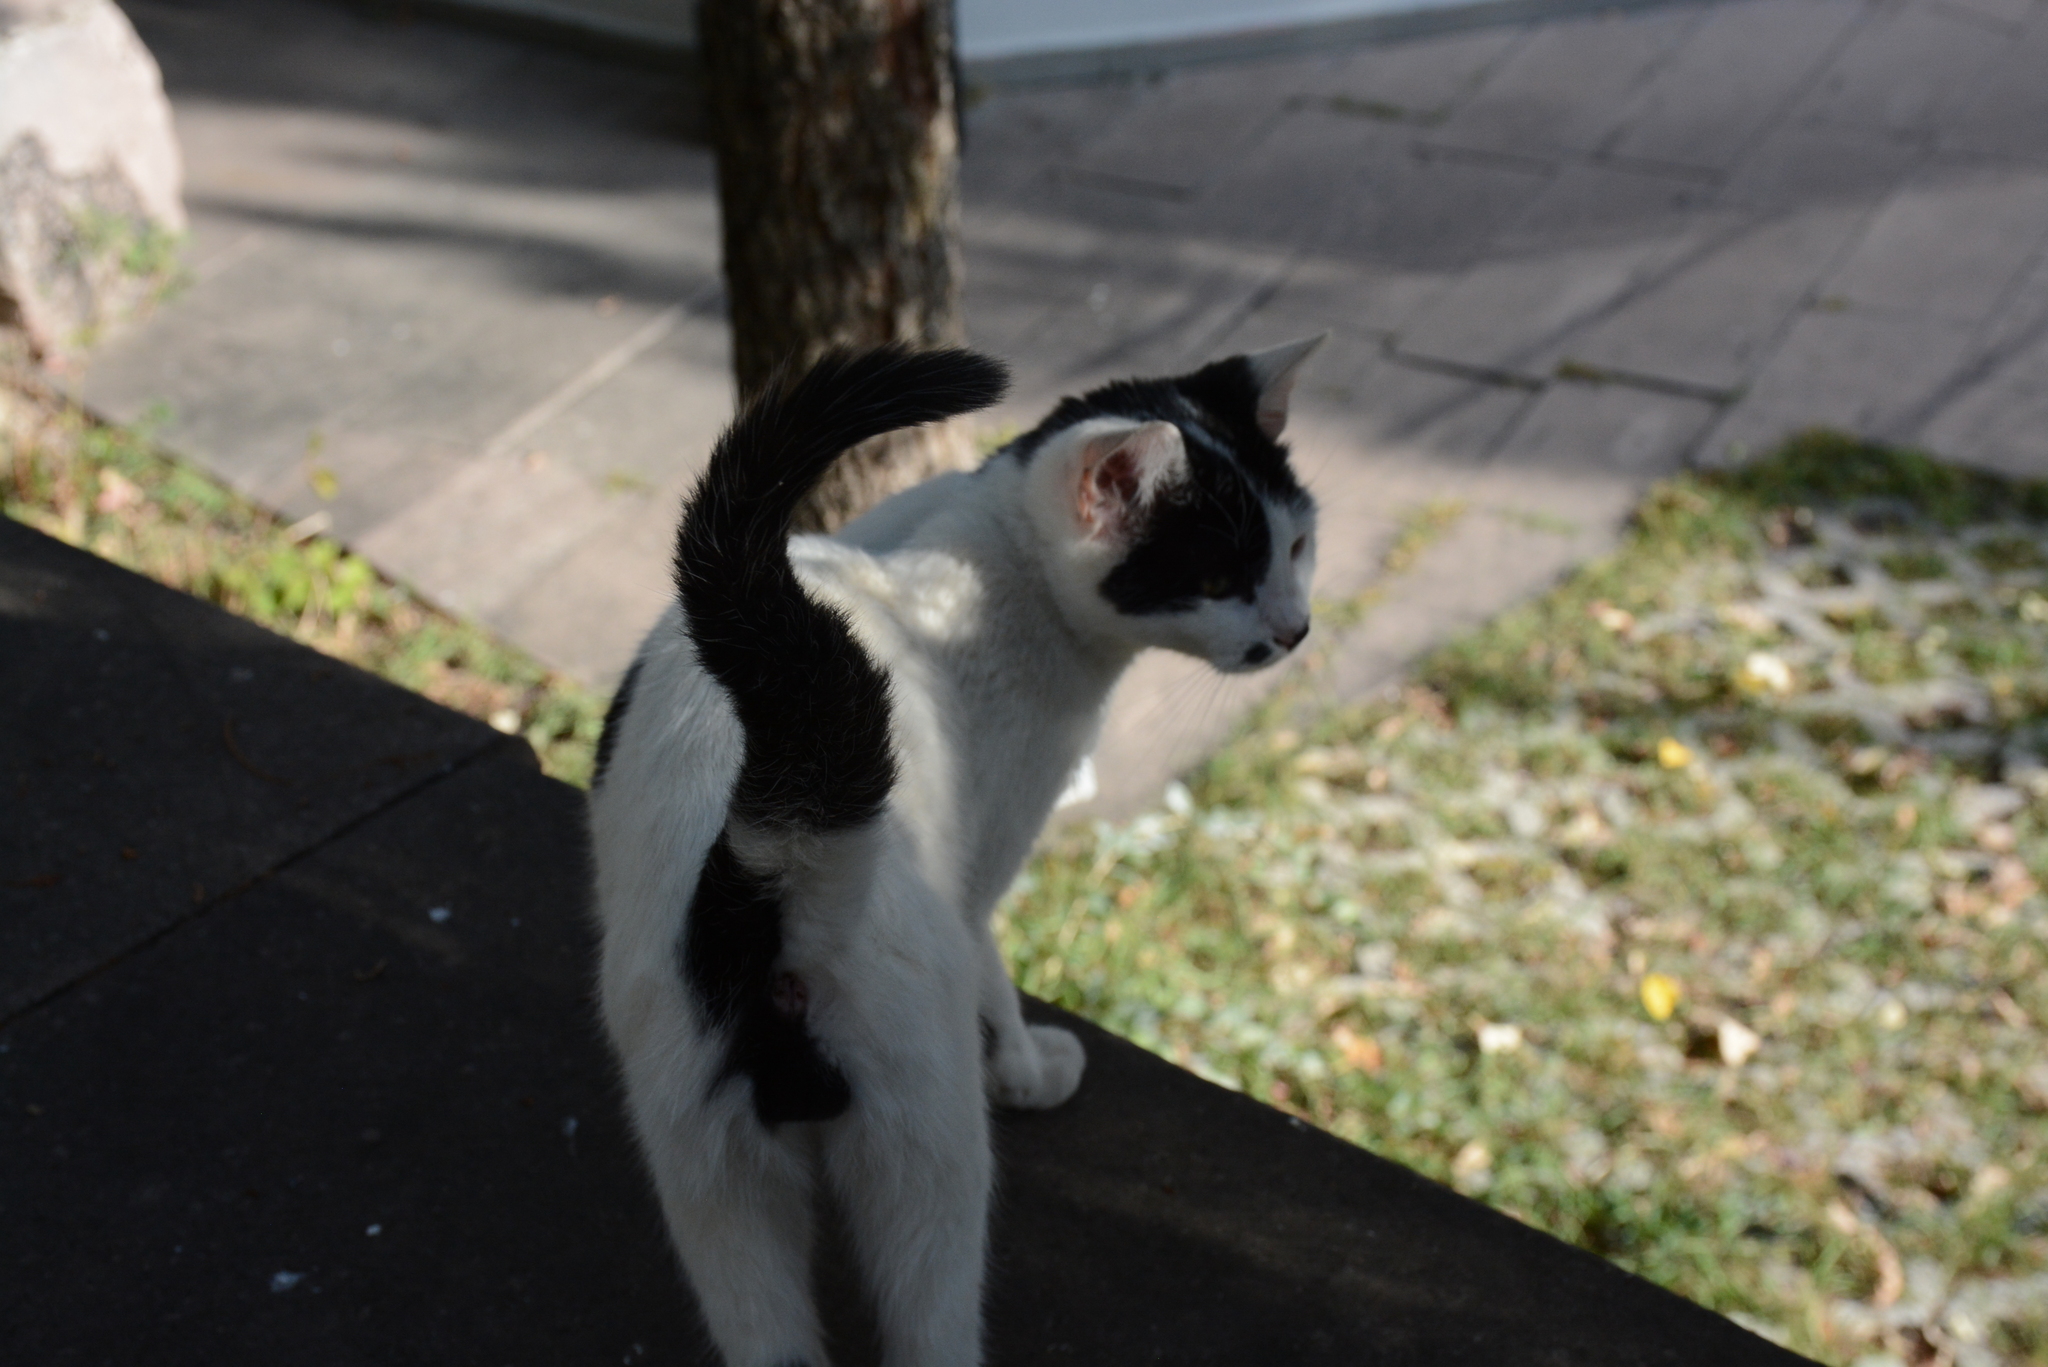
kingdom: Animalia
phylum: Chordata
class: Mammalia
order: Carnivora
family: Felidae
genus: Felis
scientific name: Felis catus
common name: Domestic cat
